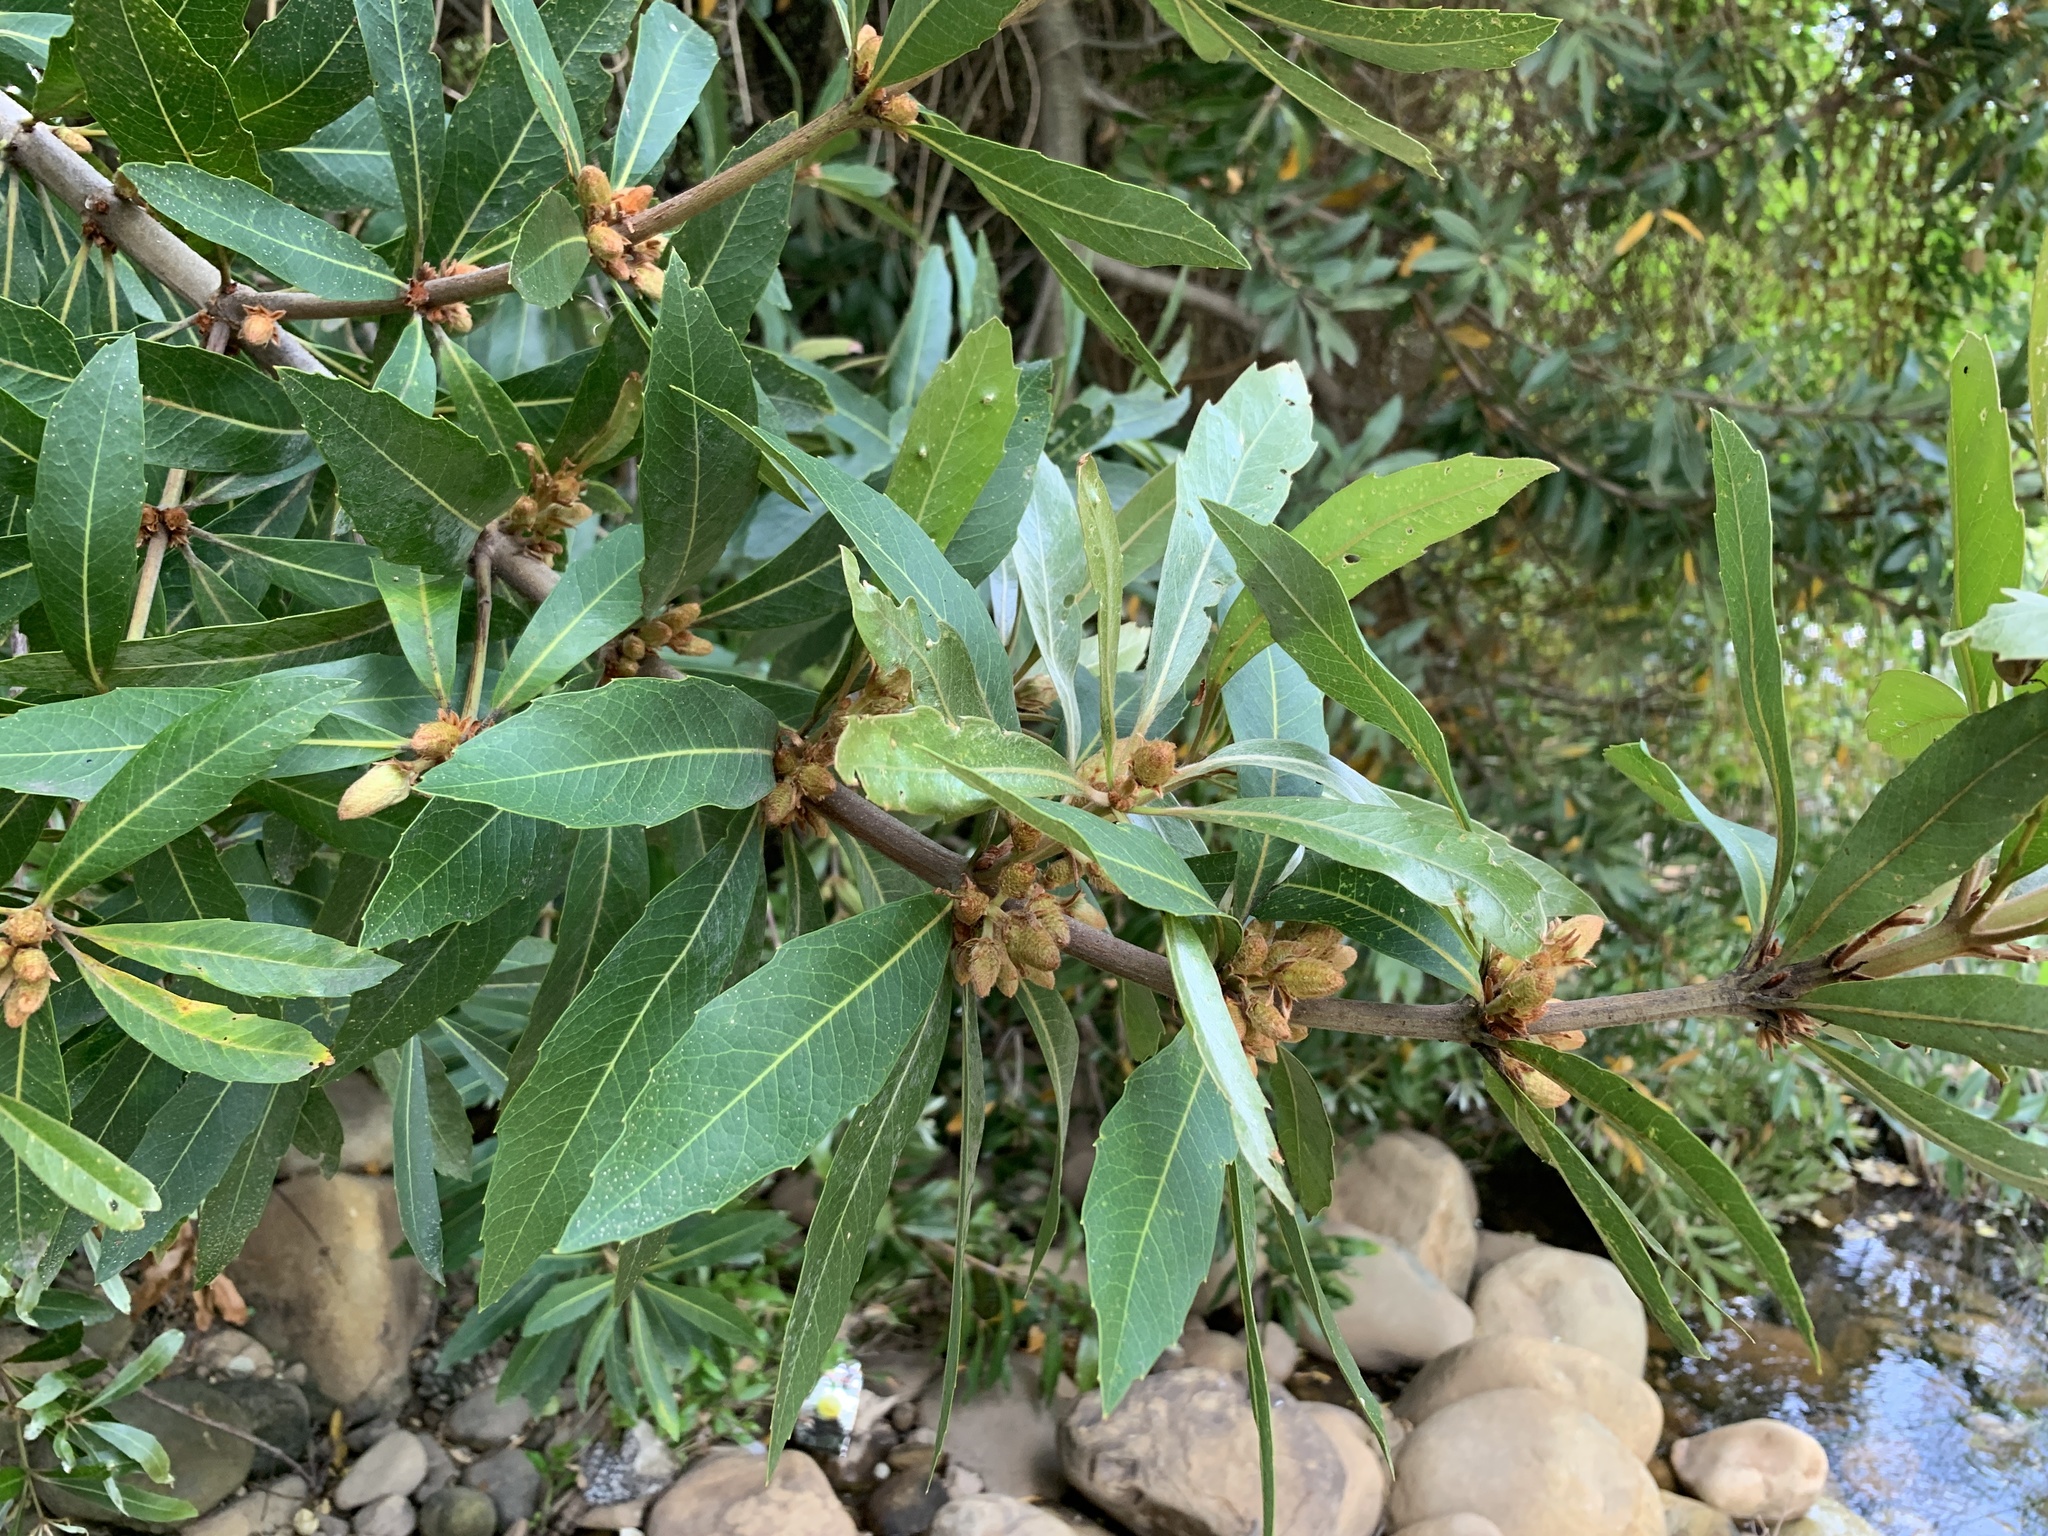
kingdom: Plantae
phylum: Tracheophyta
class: Magnoliopsida
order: Proteales
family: Proteaceae
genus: Brabejum
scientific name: Brabejum stellatifolium
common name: Wild almond
